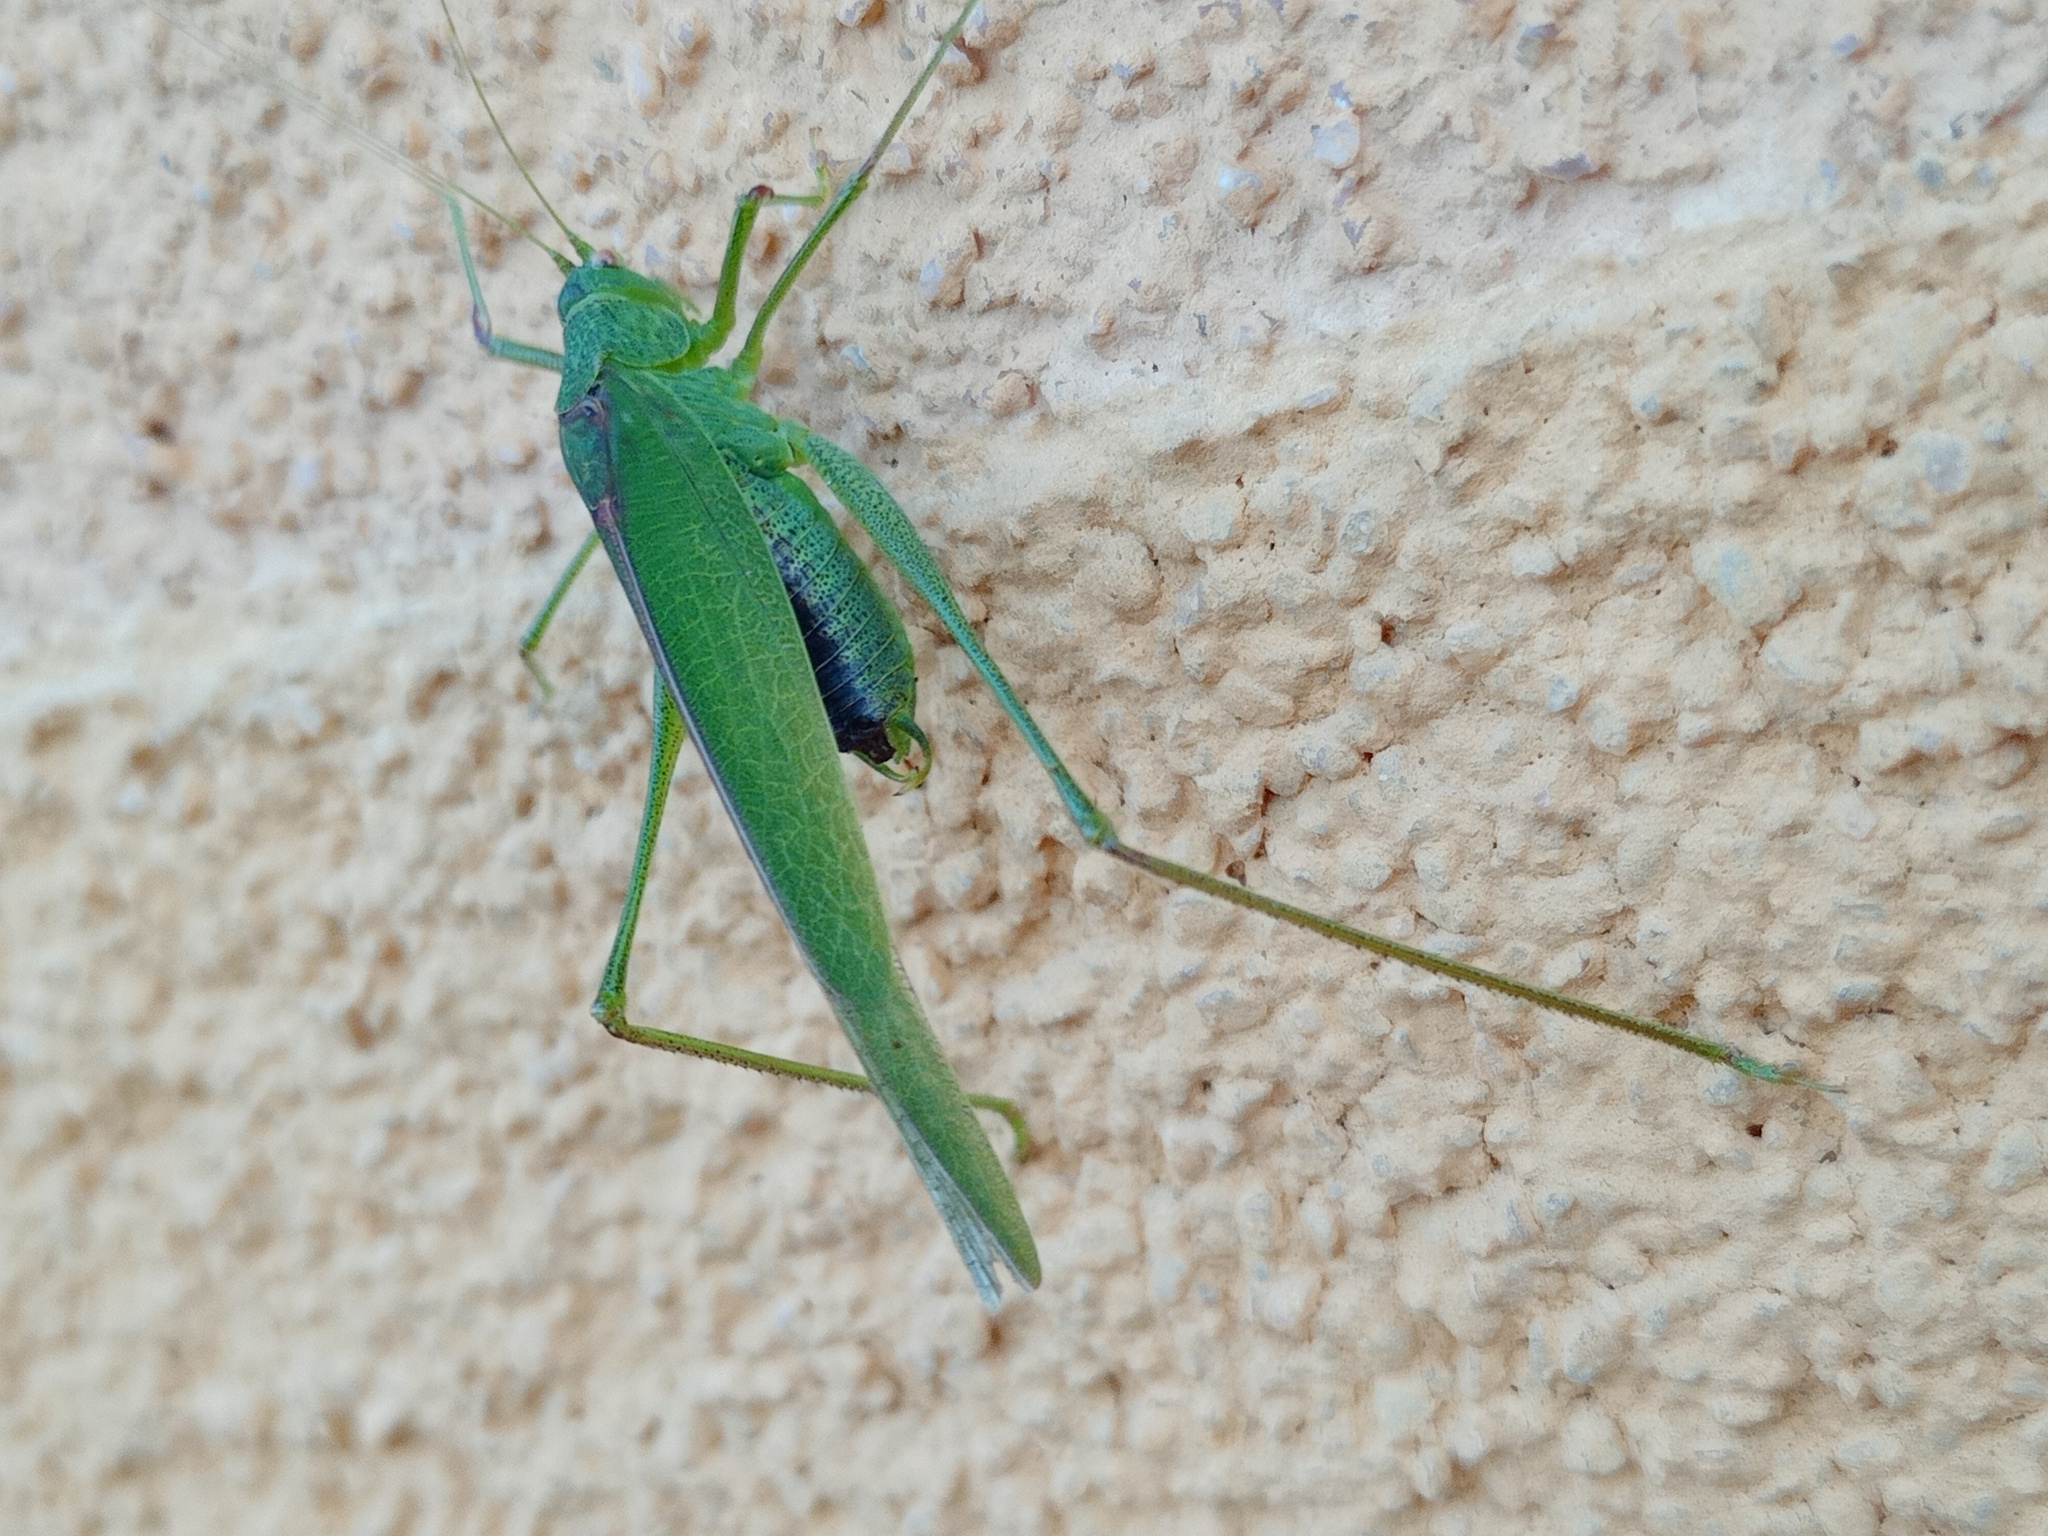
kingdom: Animalia
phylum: Arthropoda
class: Insecta
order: Orthoptera
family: Tettigoniidae
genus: Phaneroptera
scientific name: Phaneroptera nana
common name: Southern sickle bush-cricket
